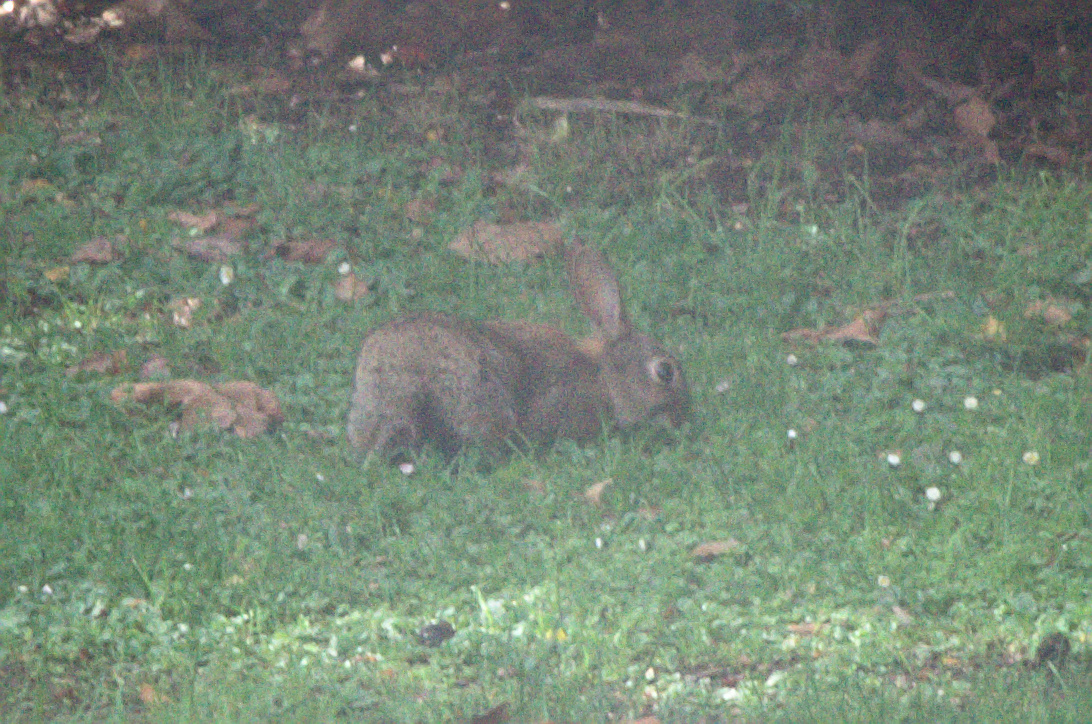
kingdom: Animalia
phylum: Chordata
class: Mammalia
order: Lagomorpha
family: Leporidae
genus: Oryctolagus
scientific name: Oryctolagus cuniculus
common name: European rabbit
